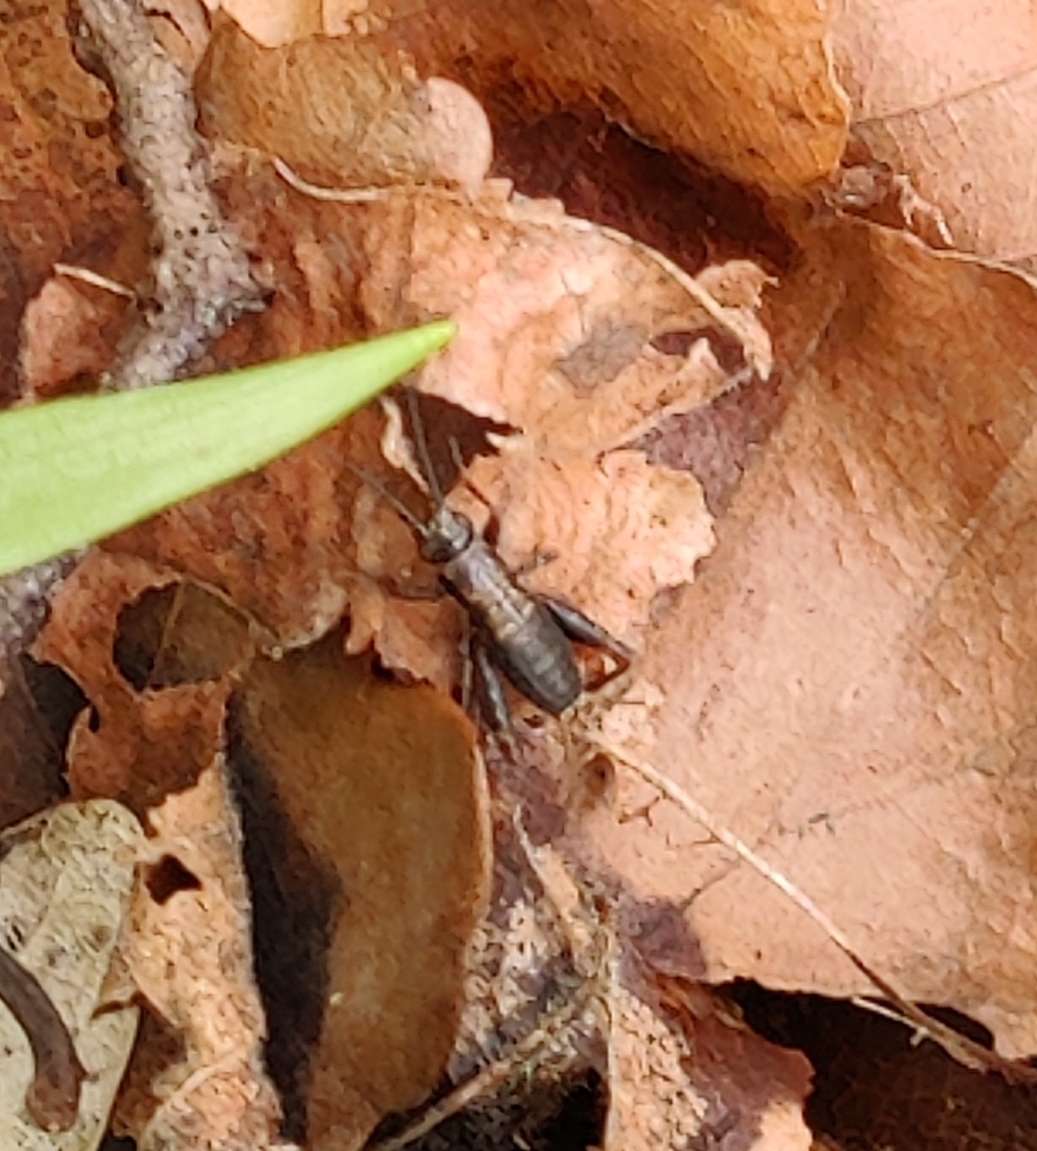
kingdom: Animalia
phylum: Arthropoda
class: Insecta
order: Orthoptera
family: Trigonidiidae
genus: Nemobius
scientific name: Nemobius sylvestris
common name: Wood-cricket
